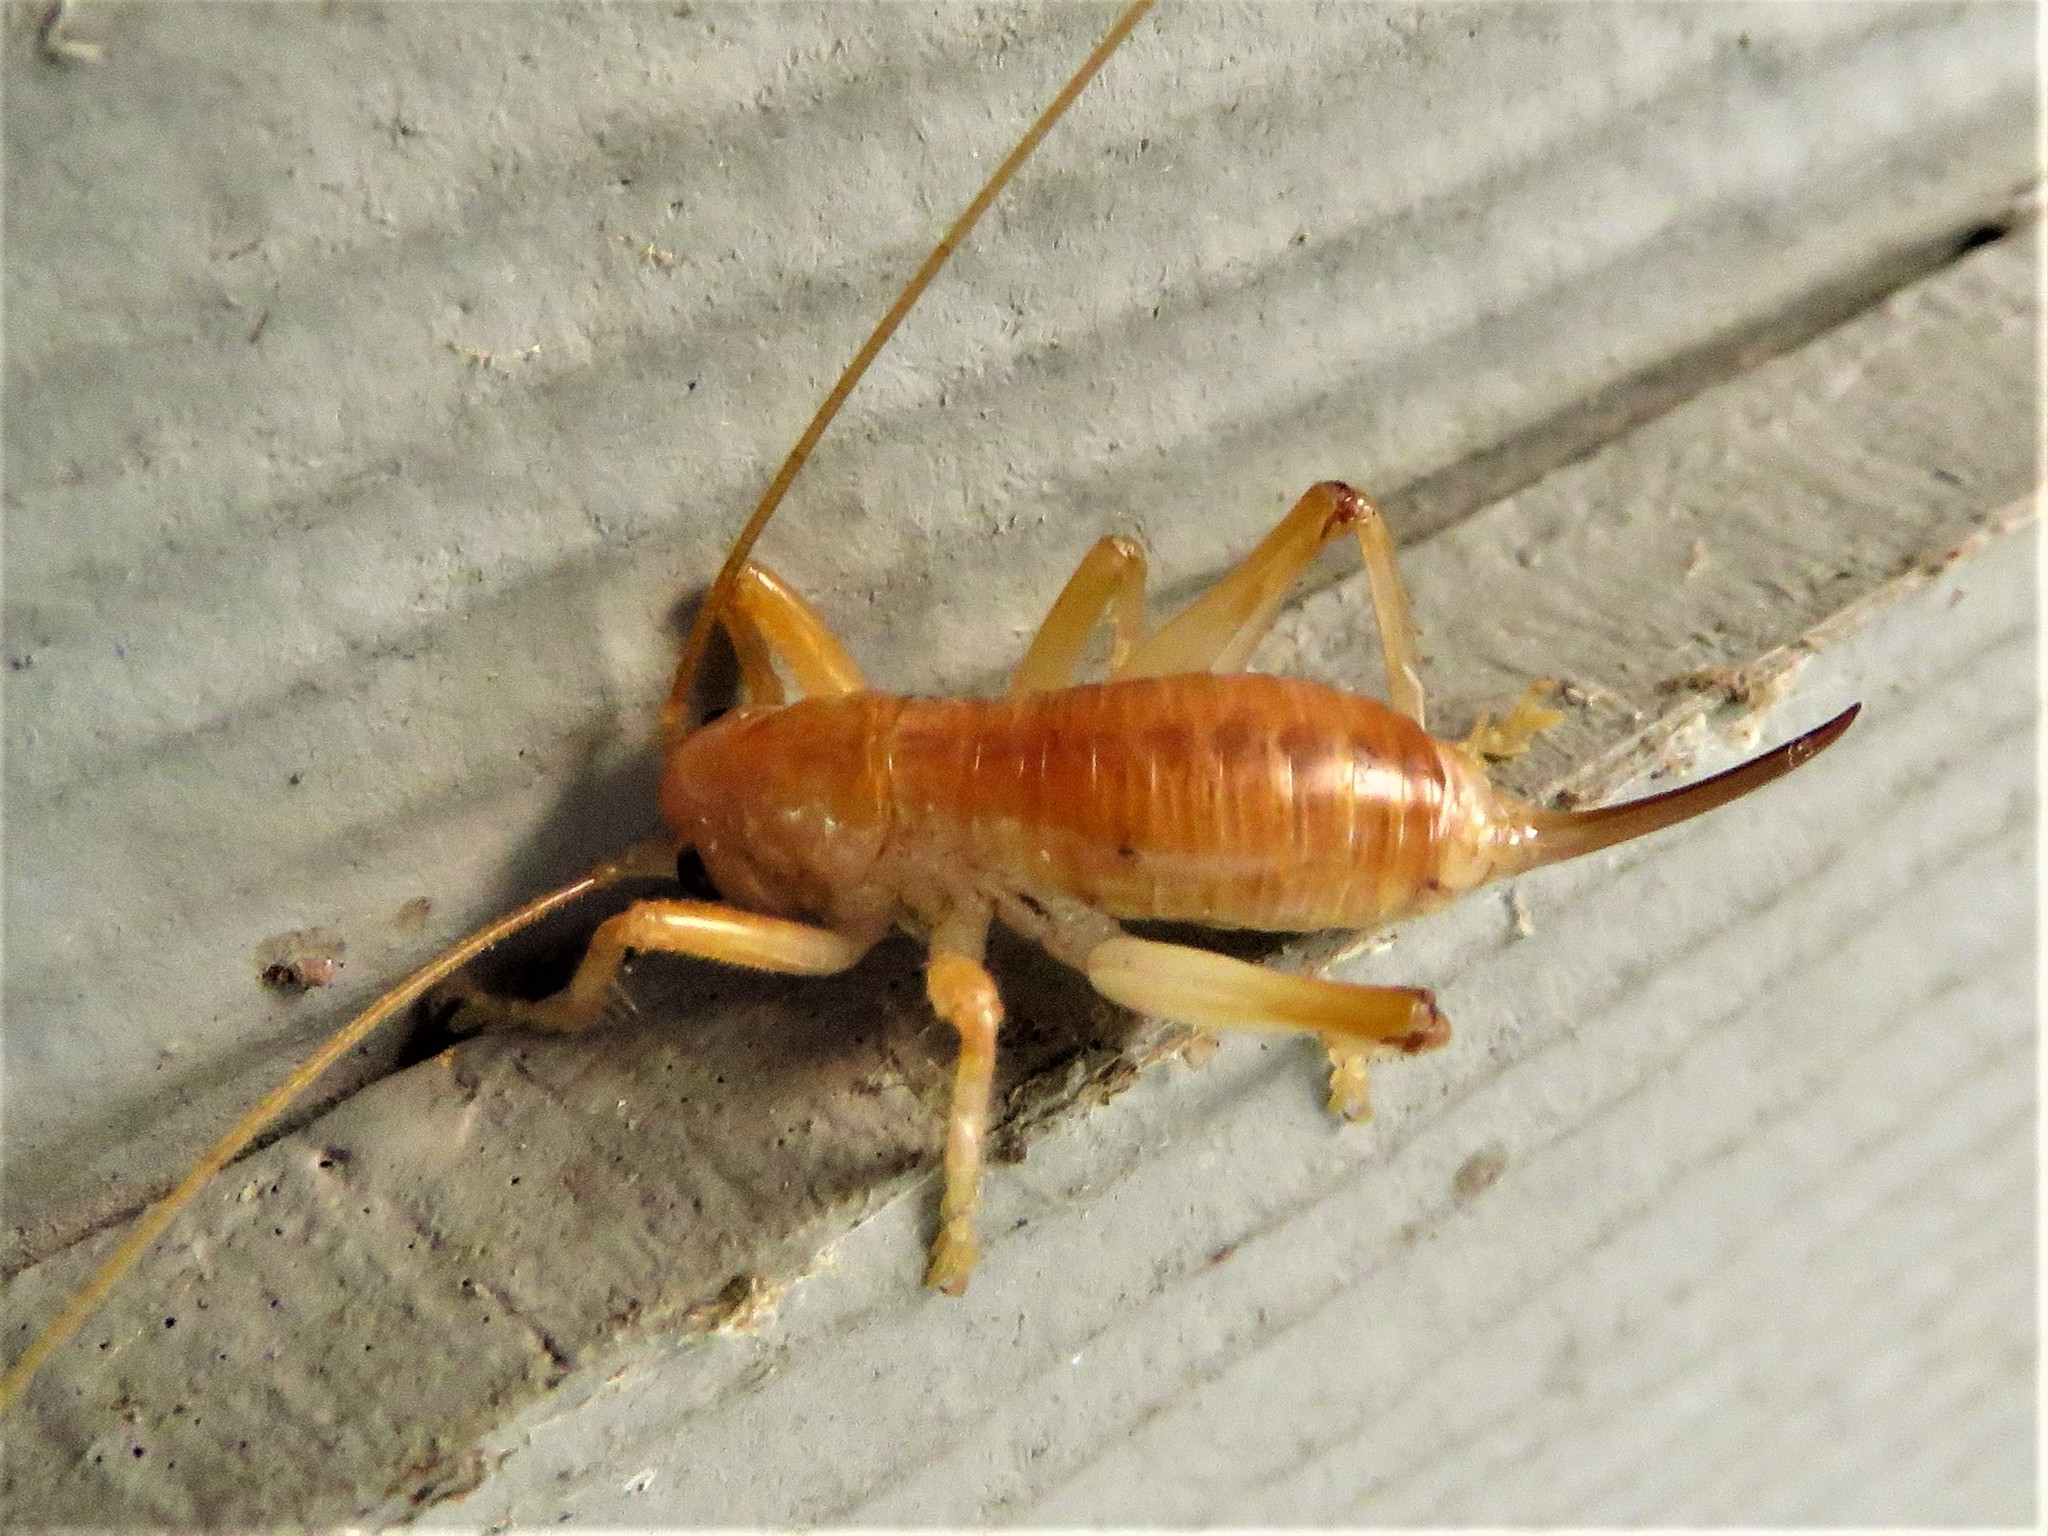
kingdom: Animalia
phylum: Arthropoda
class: Insecta
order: Orthoptera
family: Gryllacrididae
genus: Camptonotus
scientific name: Camptonotus carolinensis
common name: Carolina leaf-roller
